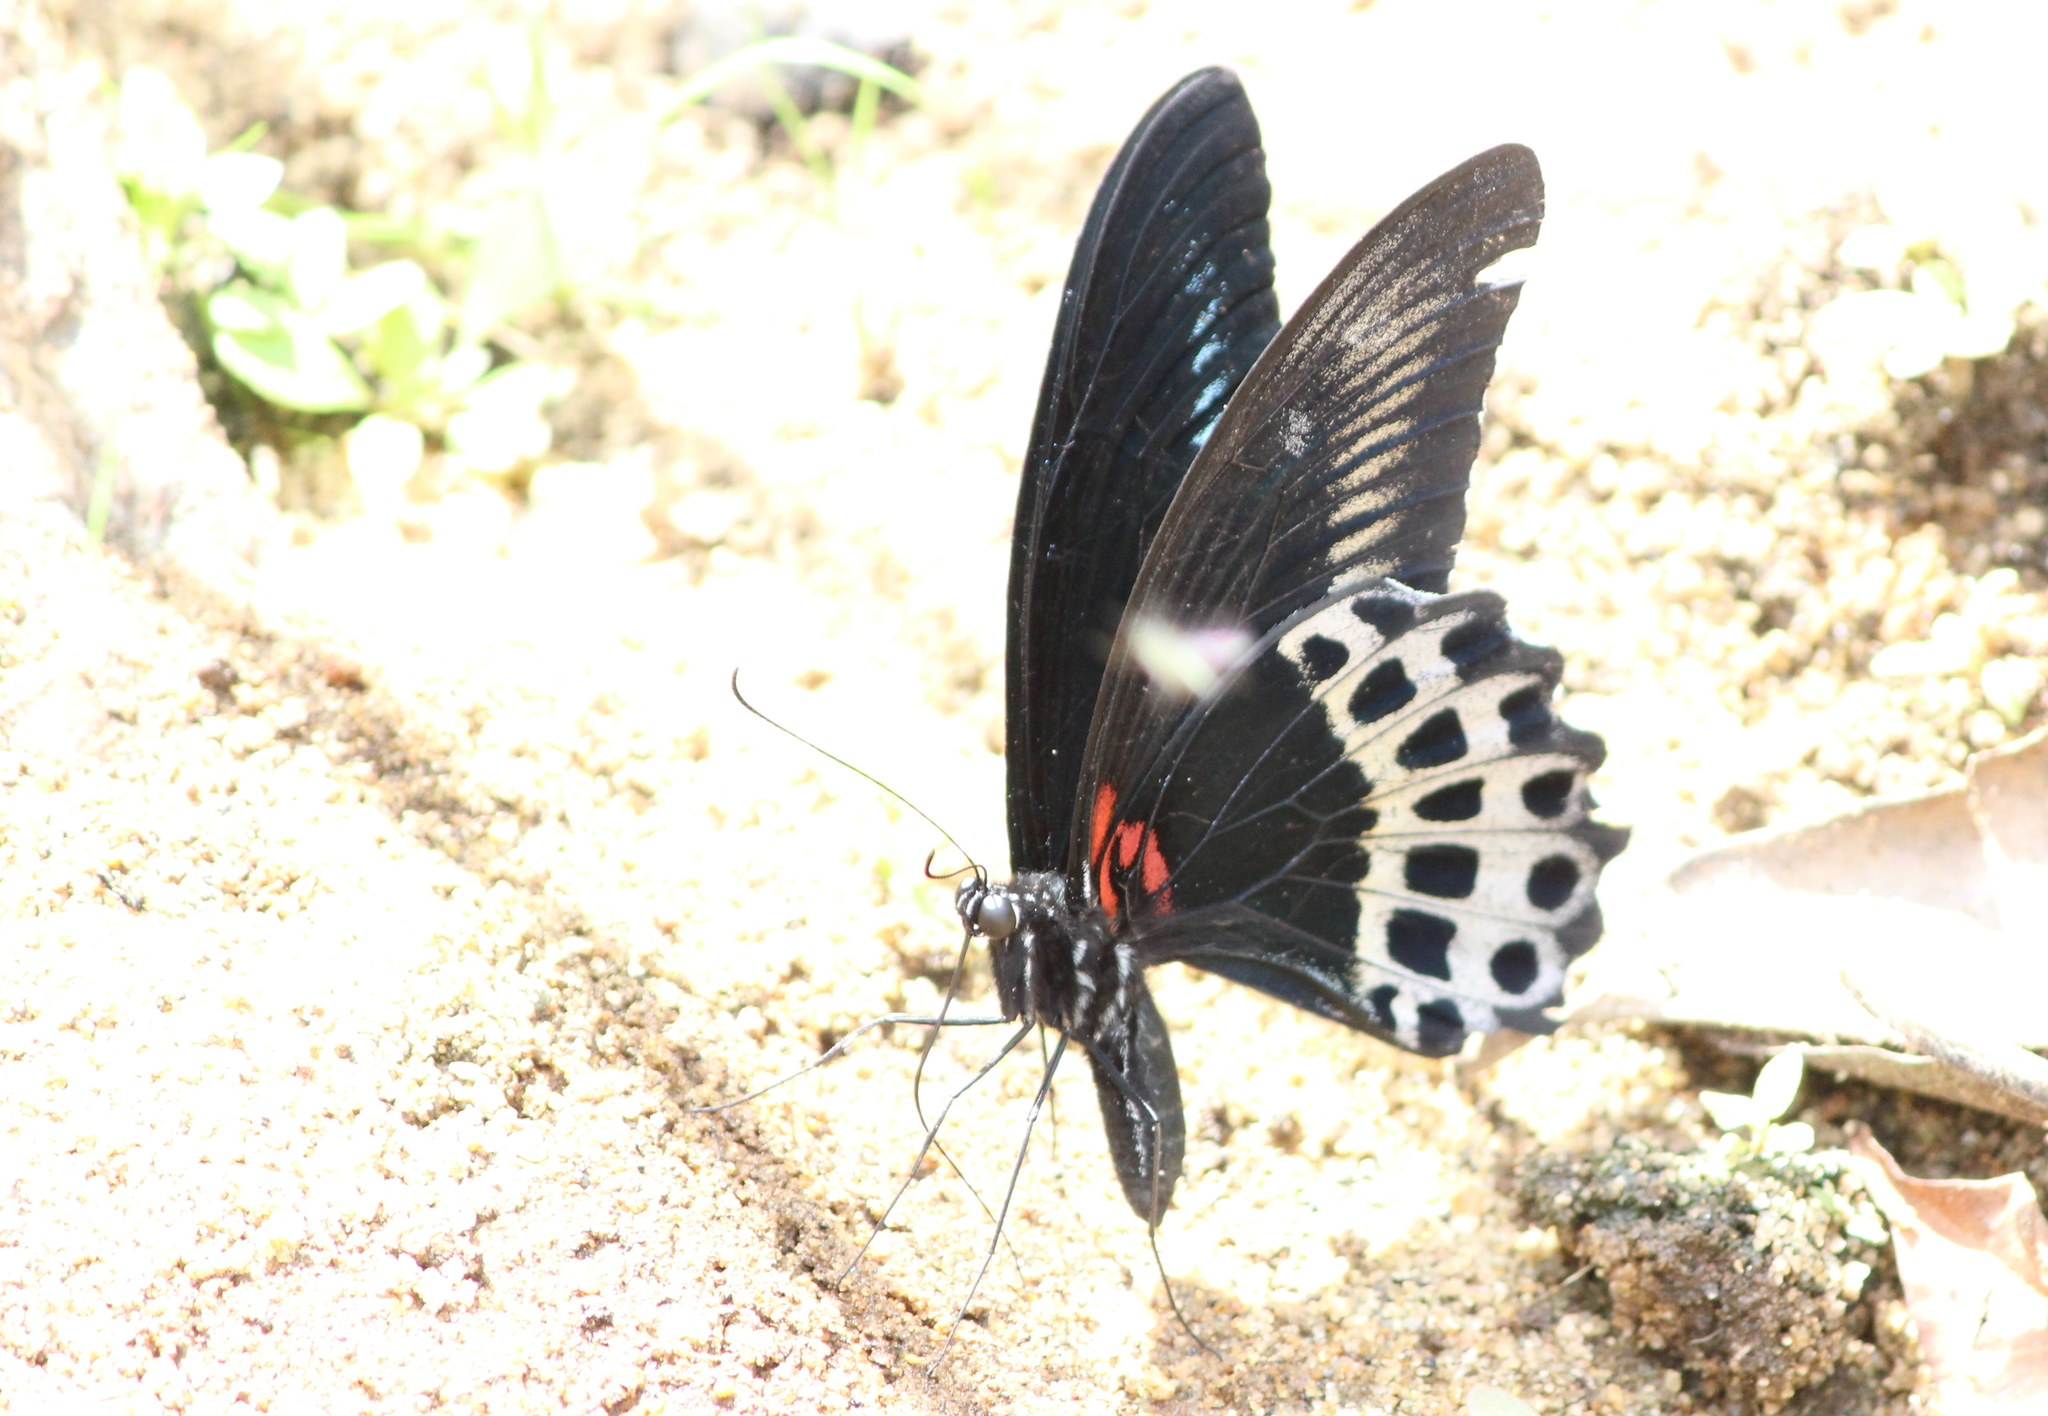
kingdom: Animalia
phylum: Arthropoda
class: Insecta
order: Lepidoptera
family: Papilionidae
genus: Papilio
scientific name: Papilio memnon
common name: Great mormon
